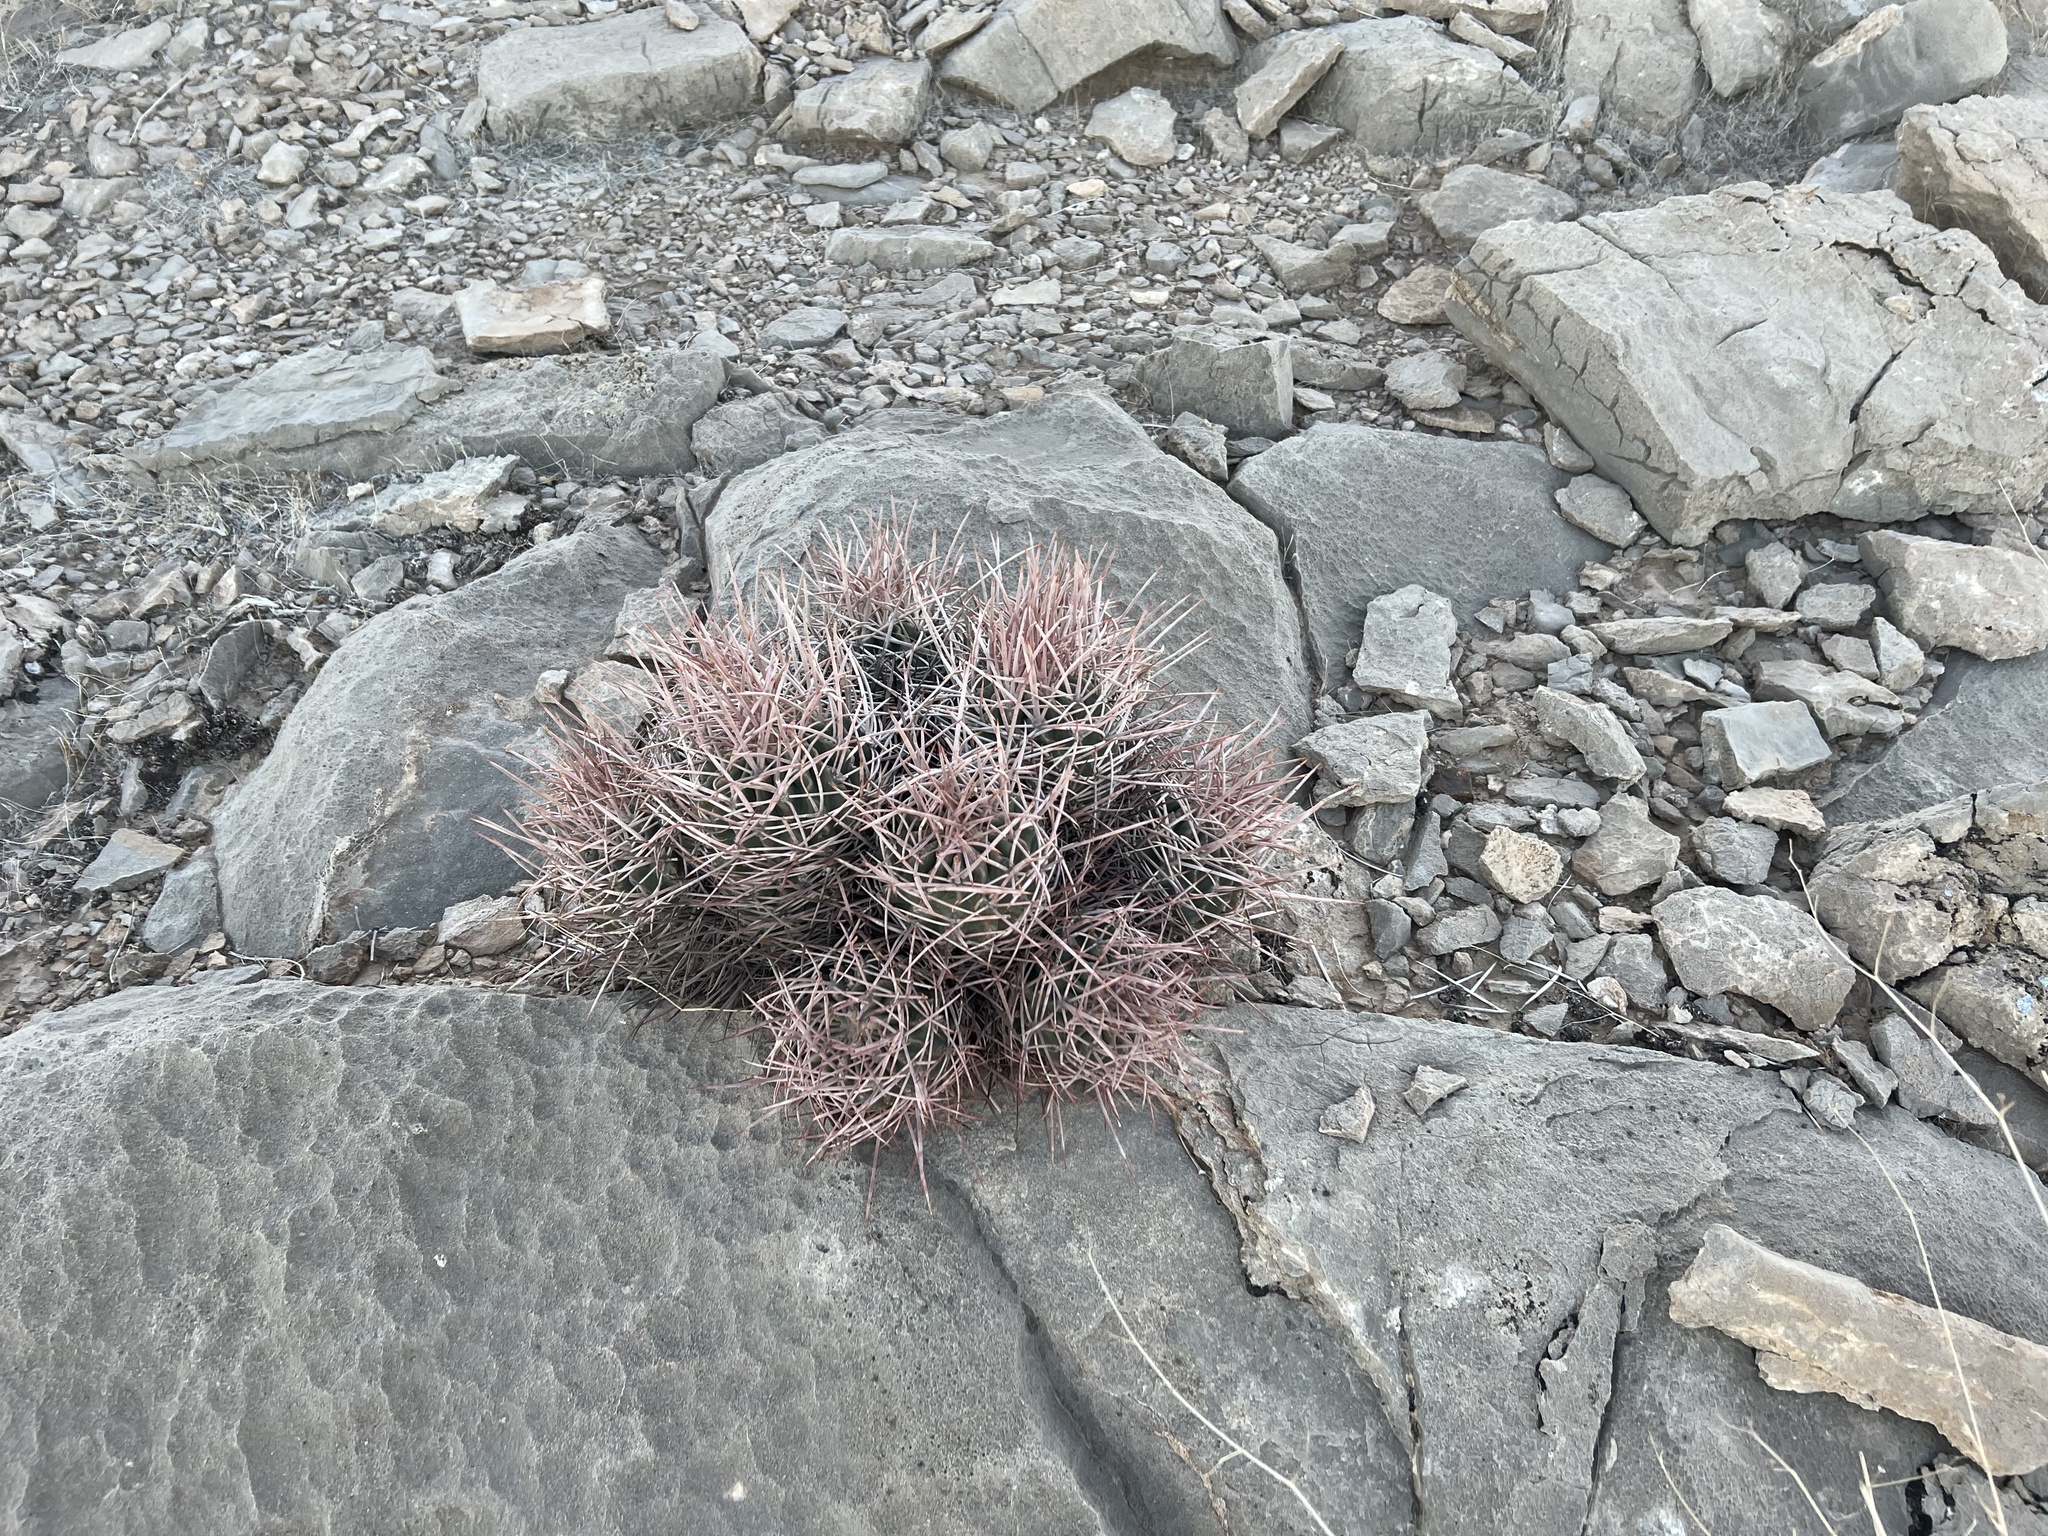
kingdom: Plantae
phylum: Tracheophyta
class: Magnoliopsida
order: Caryophyllales
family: Cactaceae
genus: Echinocactus
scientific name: Echinocactus polycephalus
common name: Cottontop cactus
